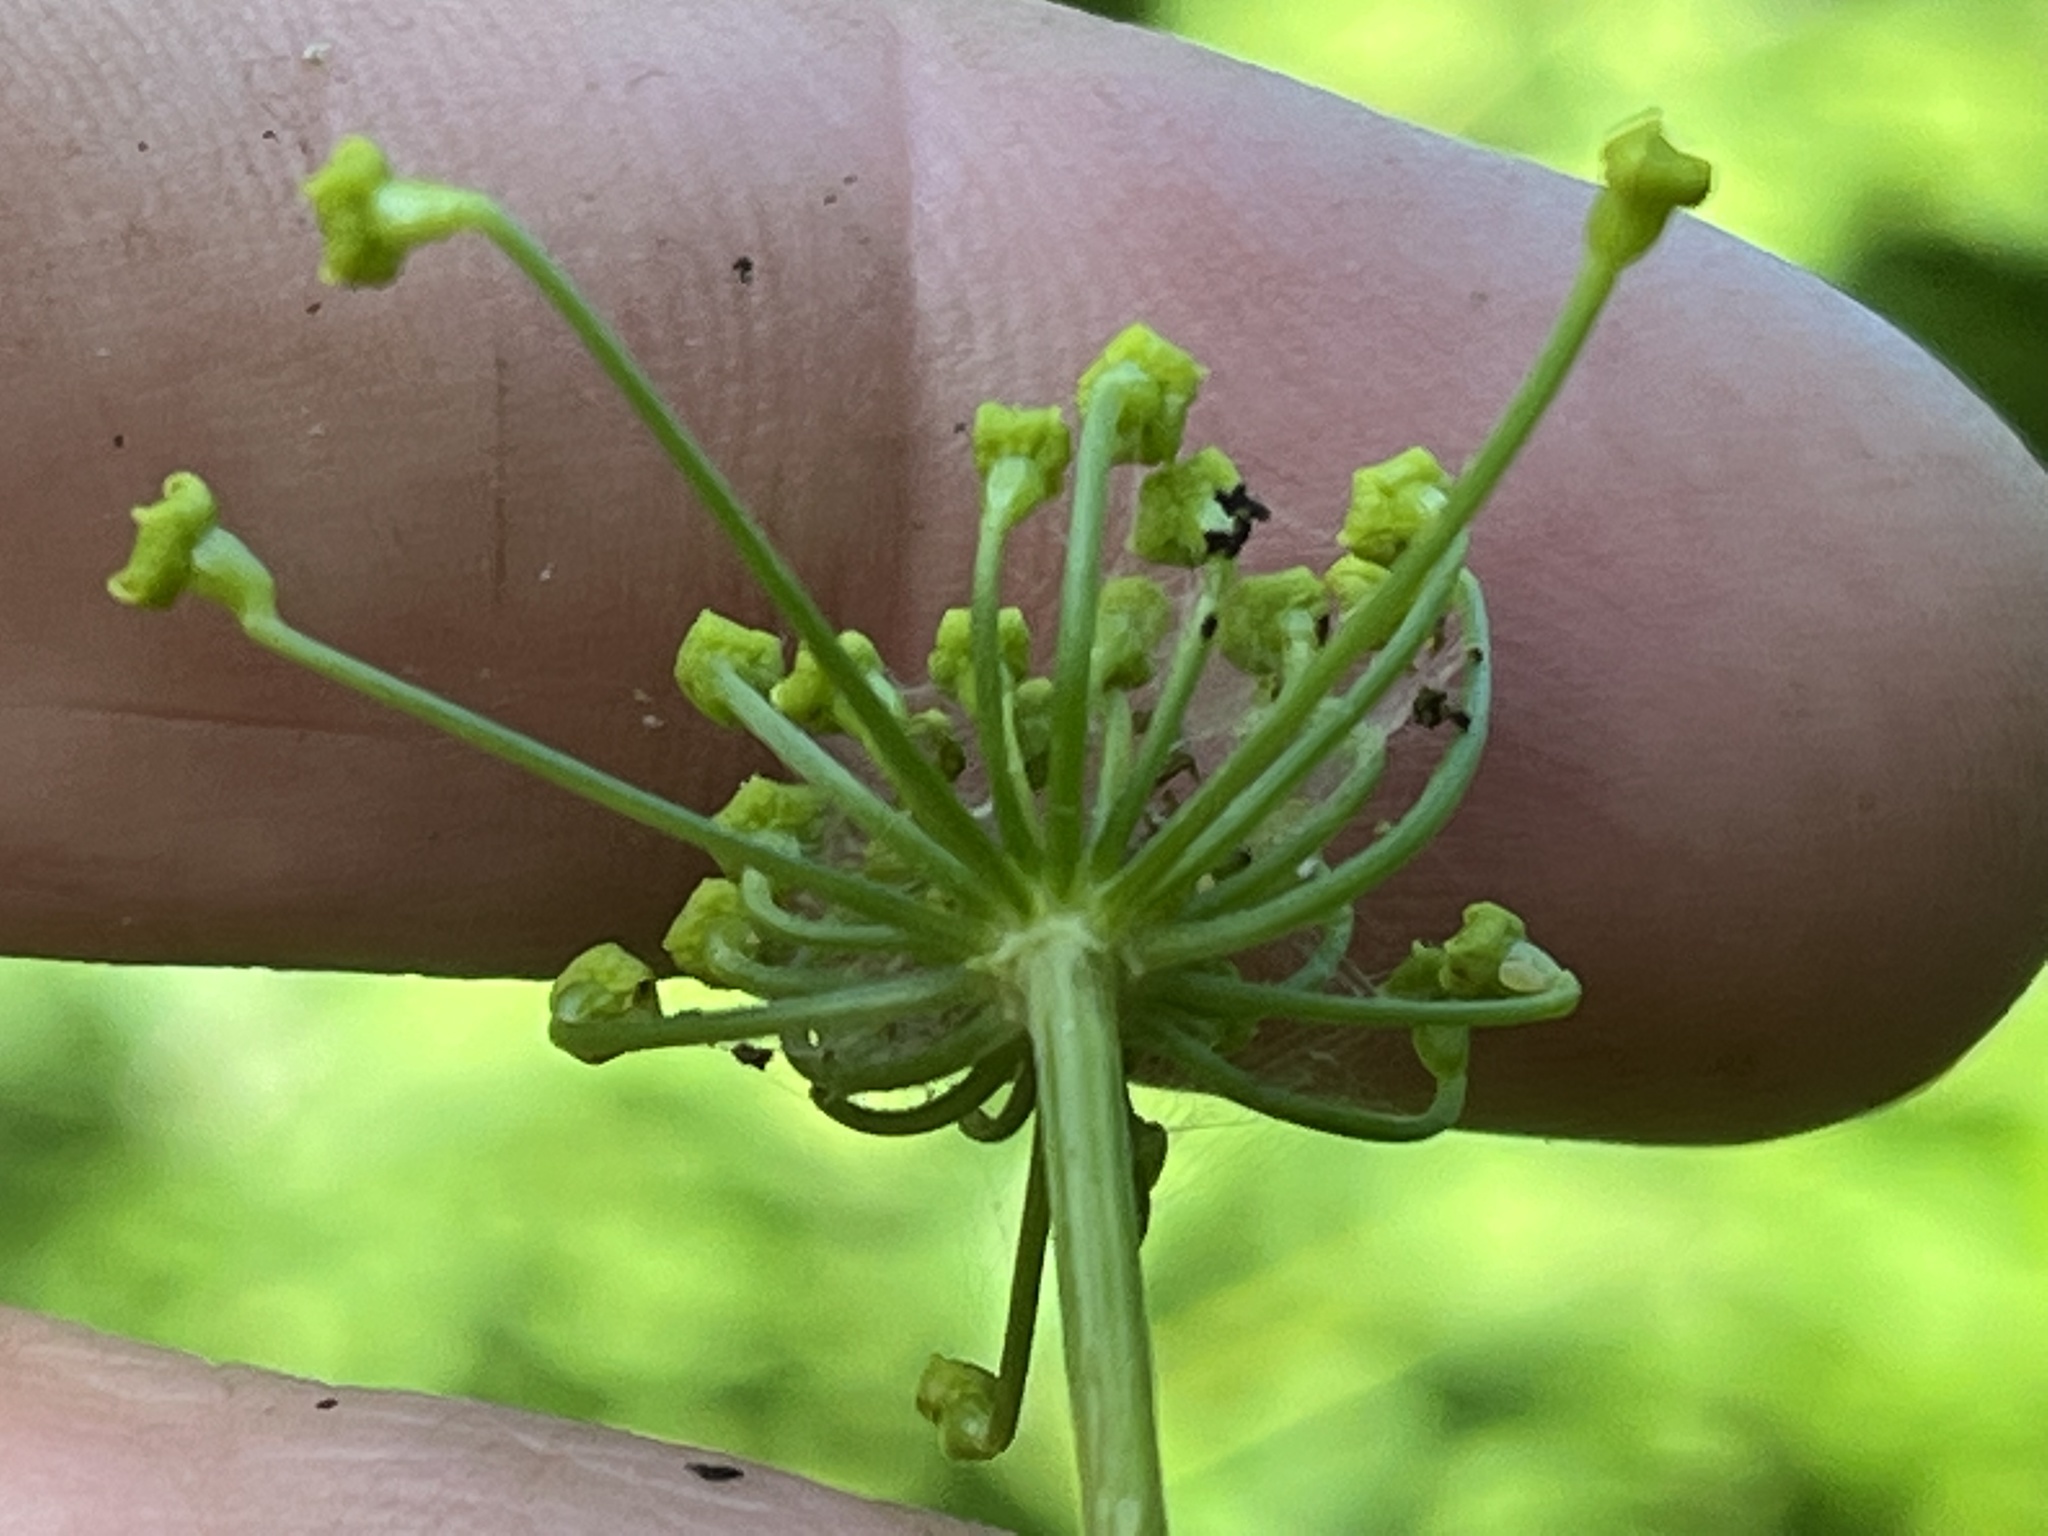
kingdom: Plantae
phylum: Tracheophyta
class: Magnoliopsida
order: Apiales
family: Apiaceae
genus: Pastinaca
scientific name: Pastinaca sativa
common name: Wild parsnip
